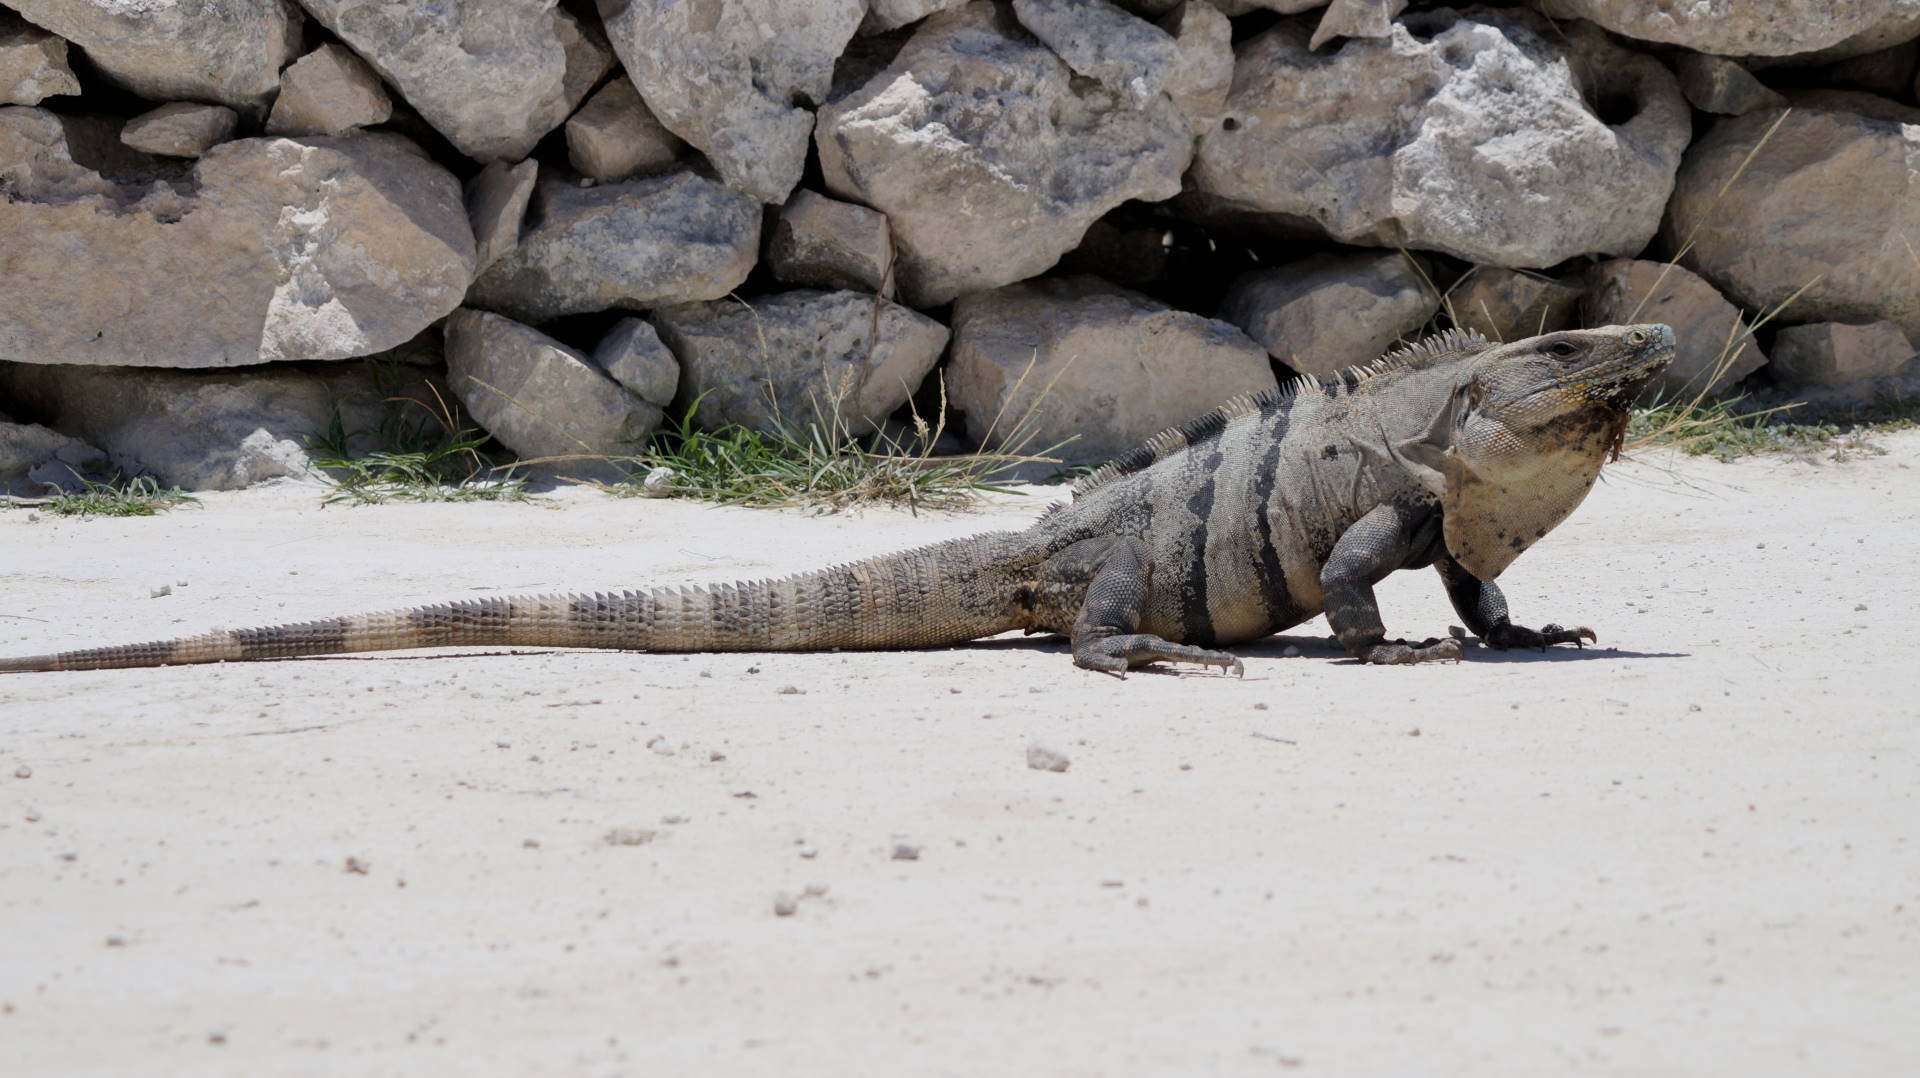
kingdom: Animalia
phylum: Chordata
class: Squamata
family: Iguanidae
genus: Ctenosaura
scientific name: Ctenosaura similis
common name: Black spiny-tailed iguana
